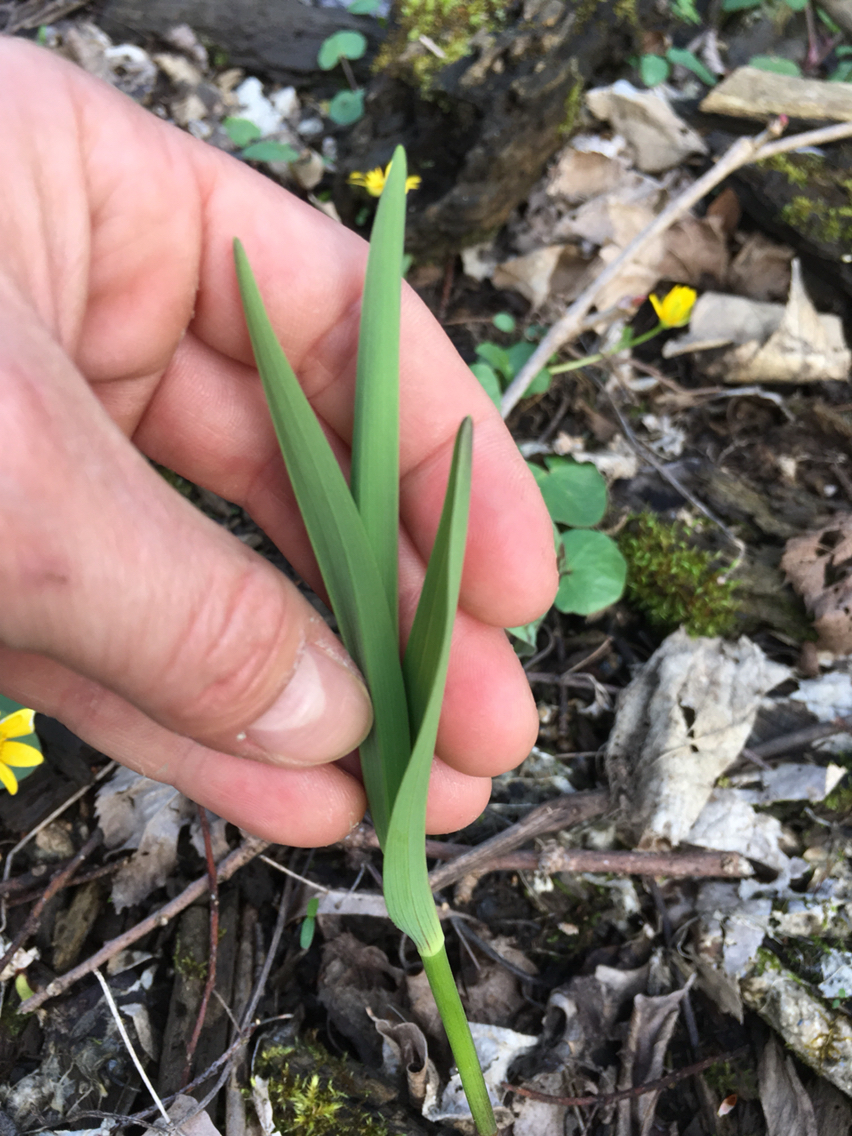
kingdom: Plantae
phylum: Tracheophyta
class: Liliopsida
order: Asparagales
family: Asparagaceae
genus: Maianthemum
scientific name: Maianthemum stellatum
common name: Little false solomon's seal
